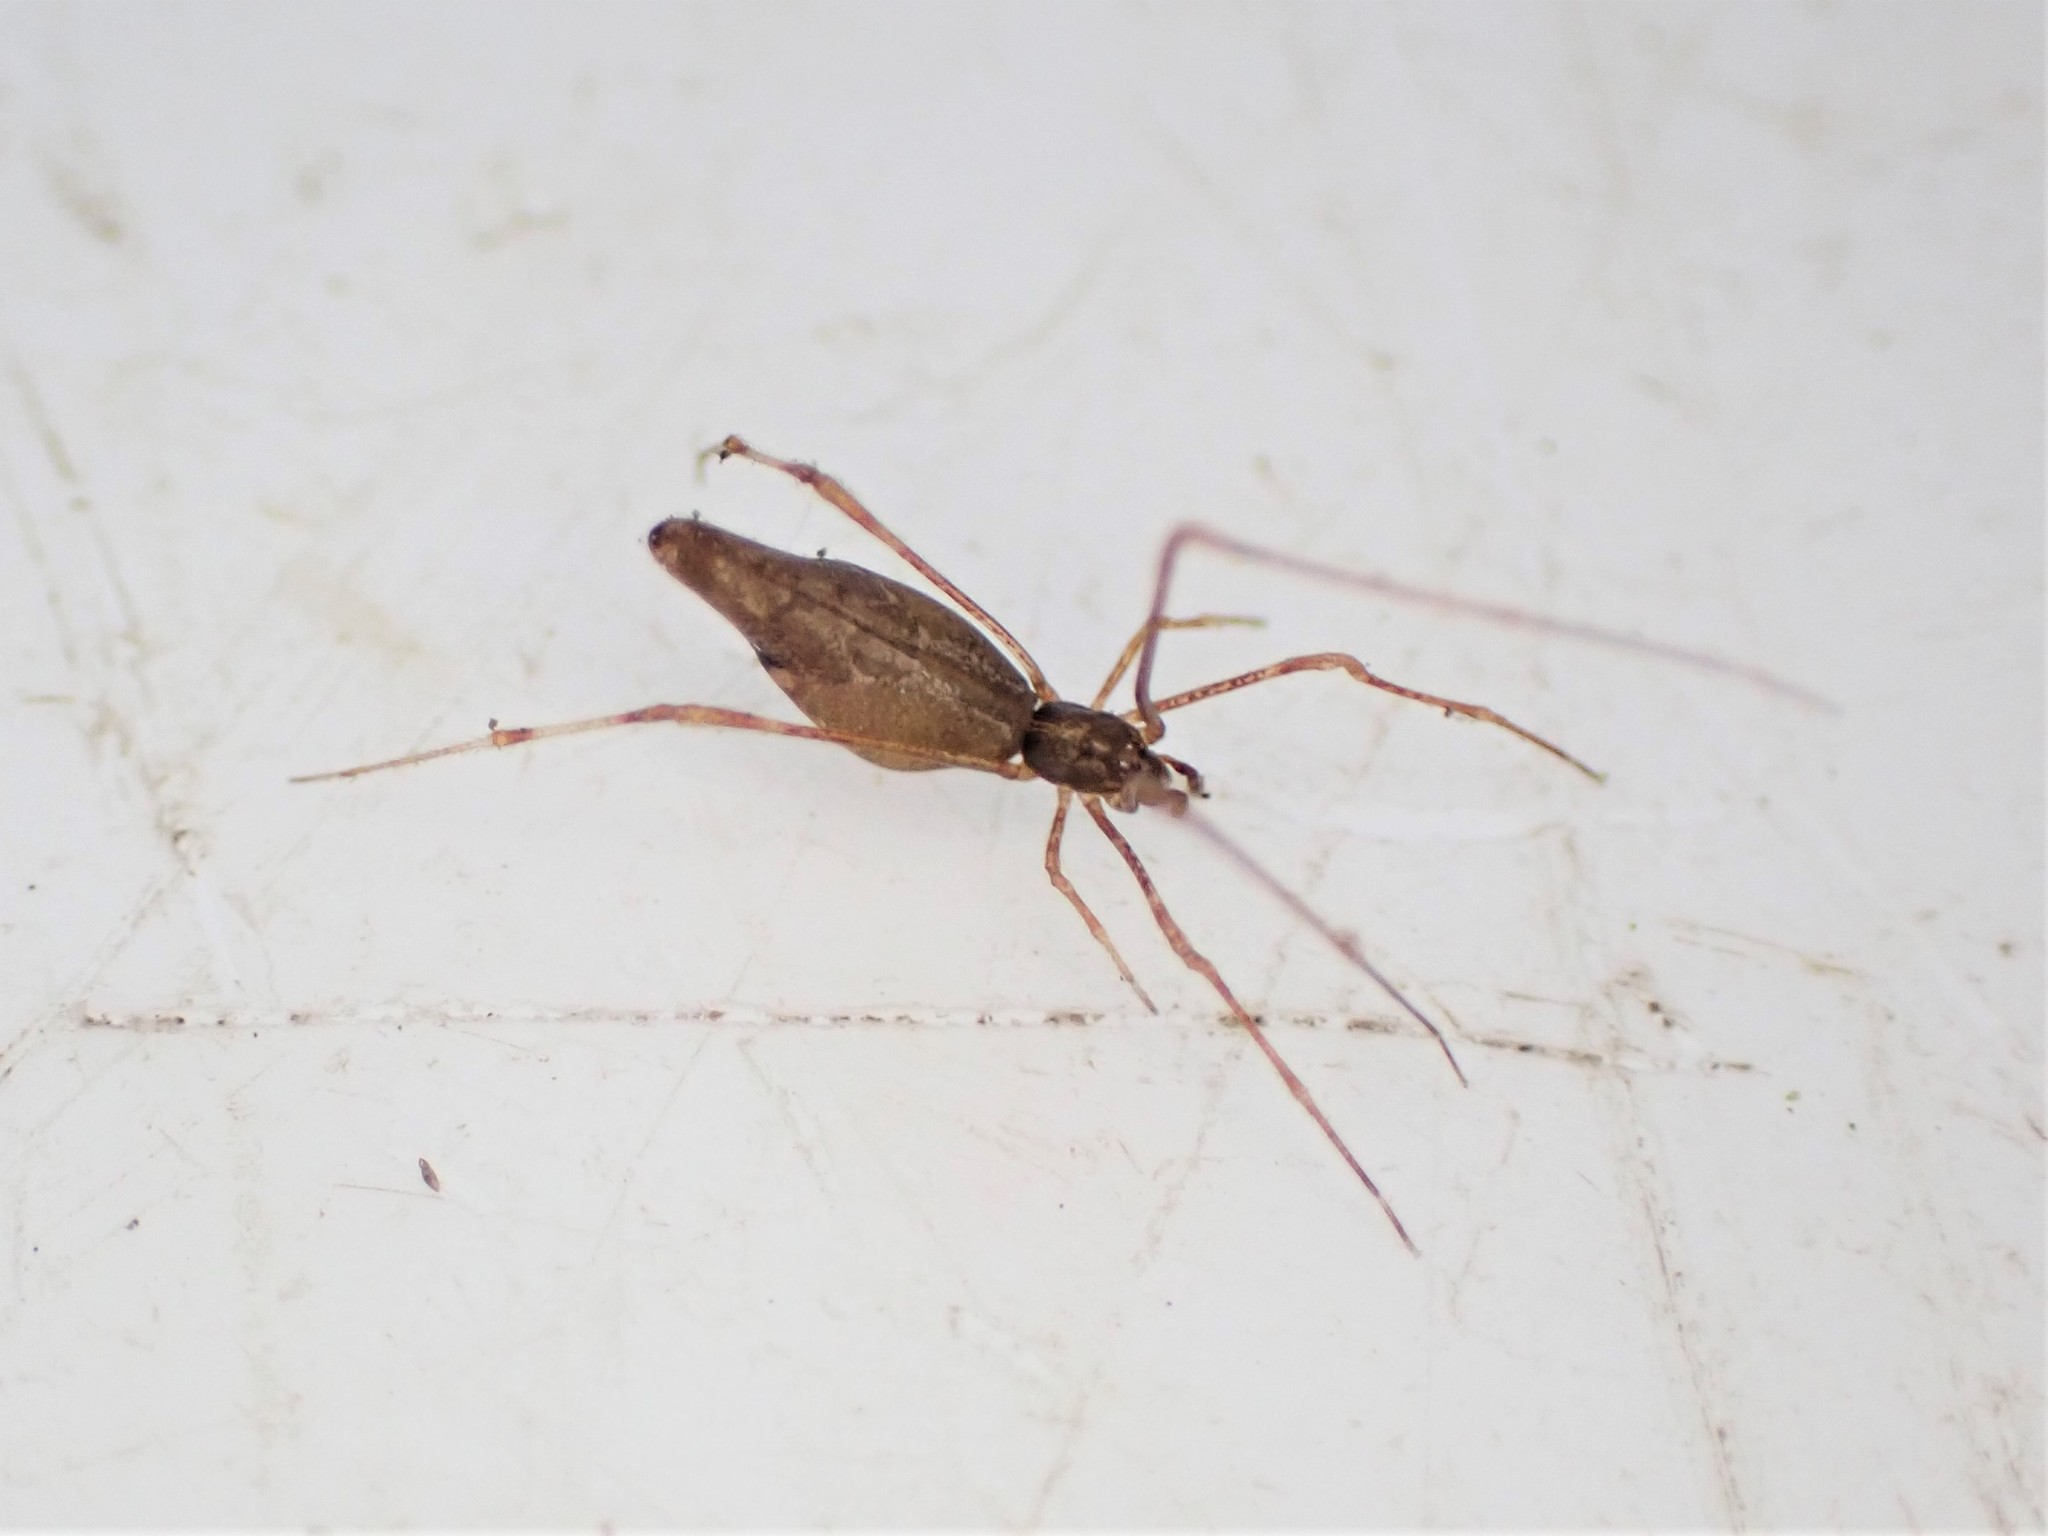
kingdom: Animalia
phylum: Arthropoda
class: Arachnida
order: Araneae
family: Theridiidae
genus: Rhomphaea
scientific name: Rhomphaea urquharti
